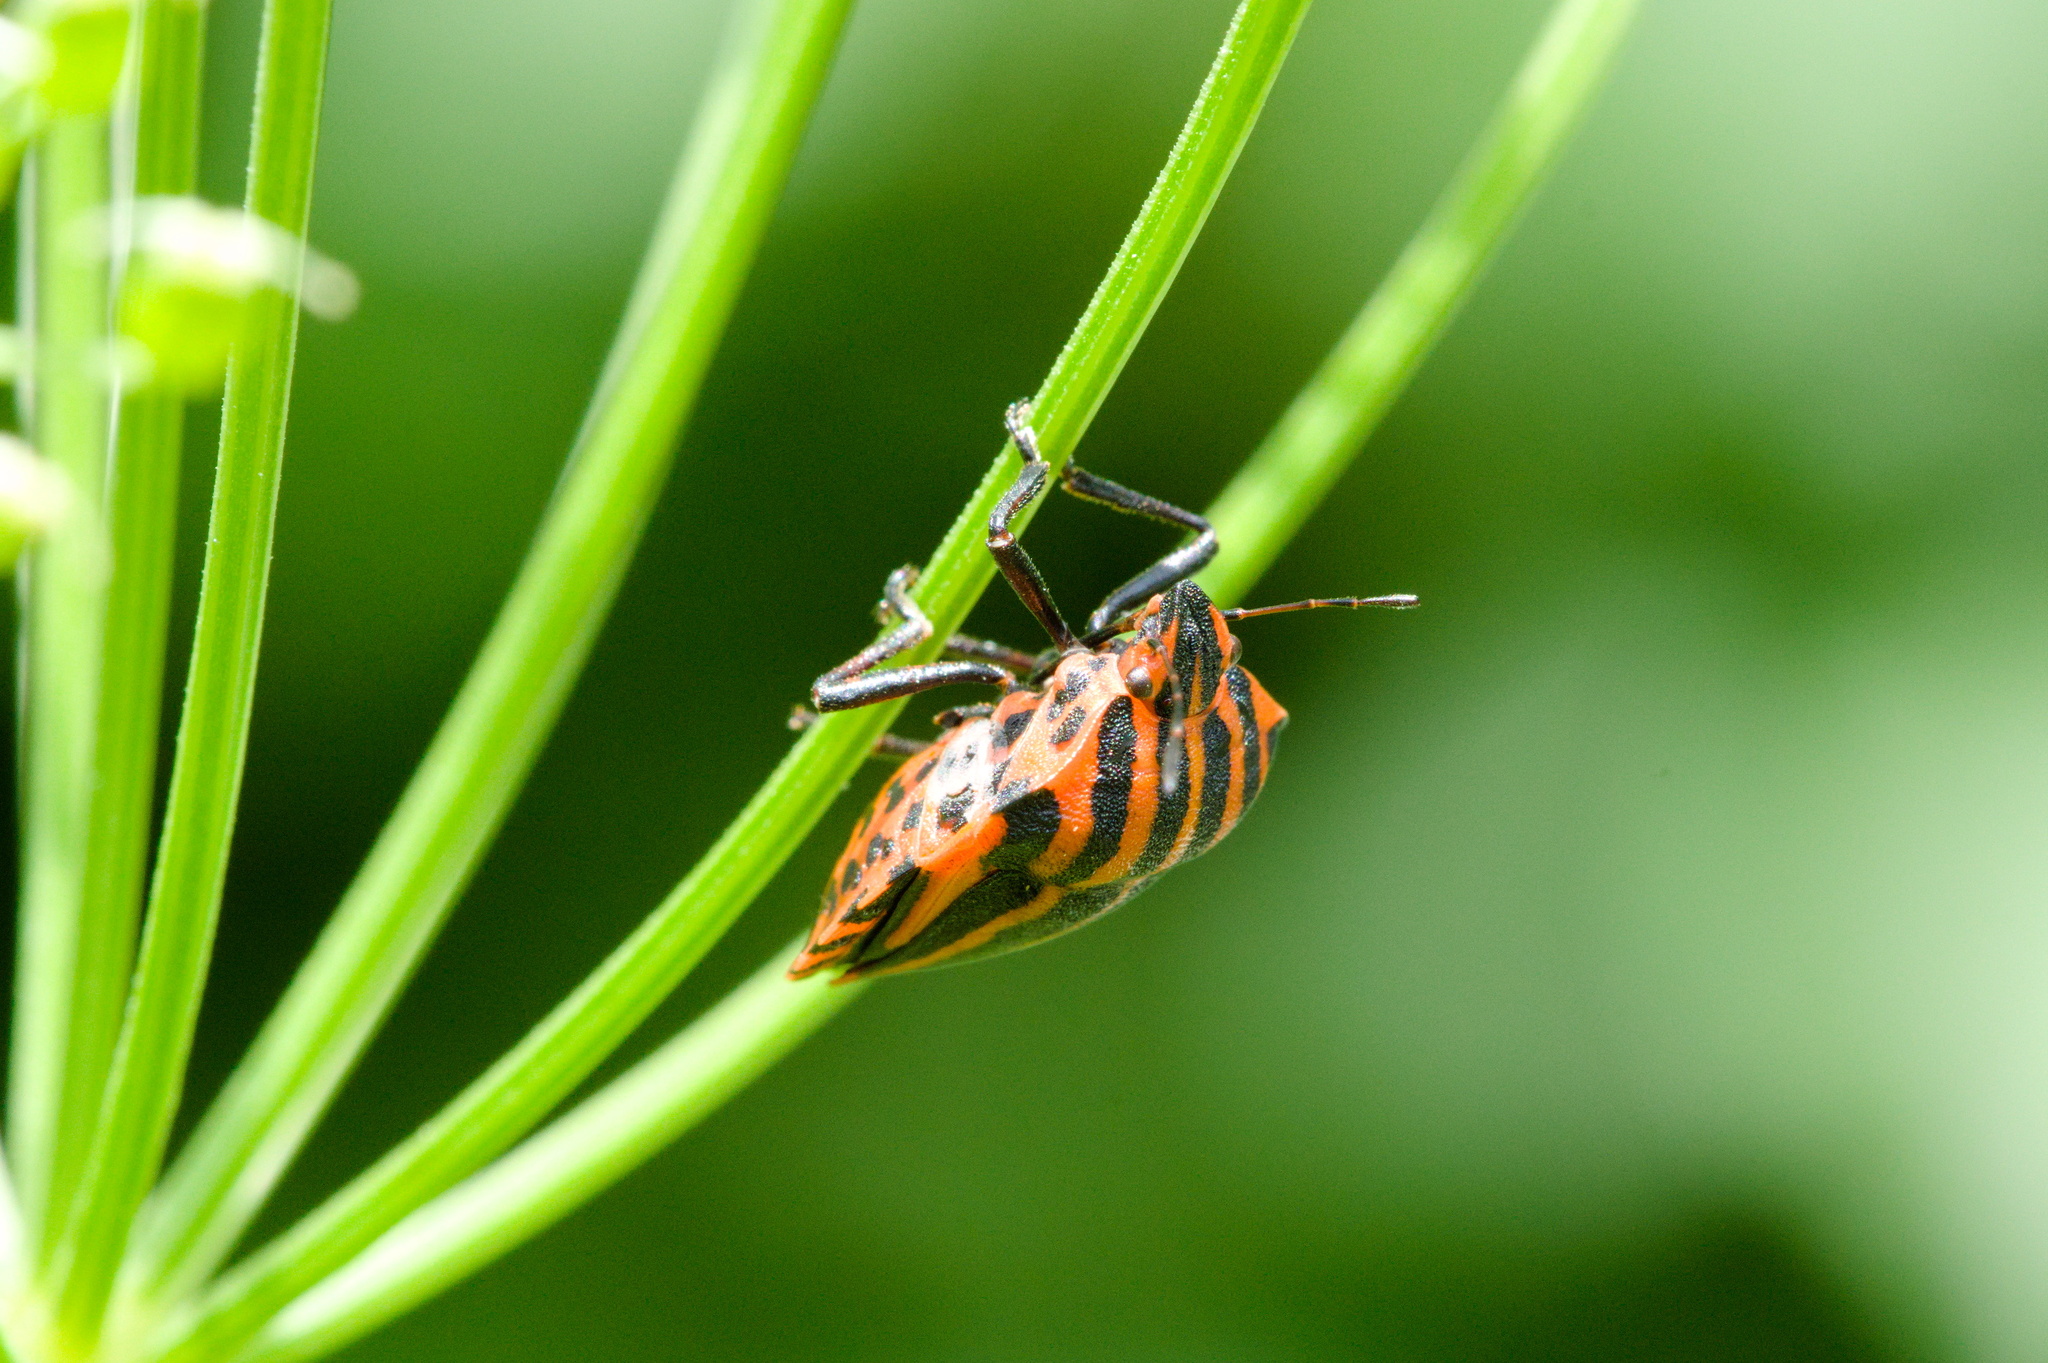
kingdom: Animalia
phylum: Arthropoda
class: Insecta
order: Hemiptera
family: Pentatomidae
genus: Graphosoma
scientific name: Graphosoma italicum
